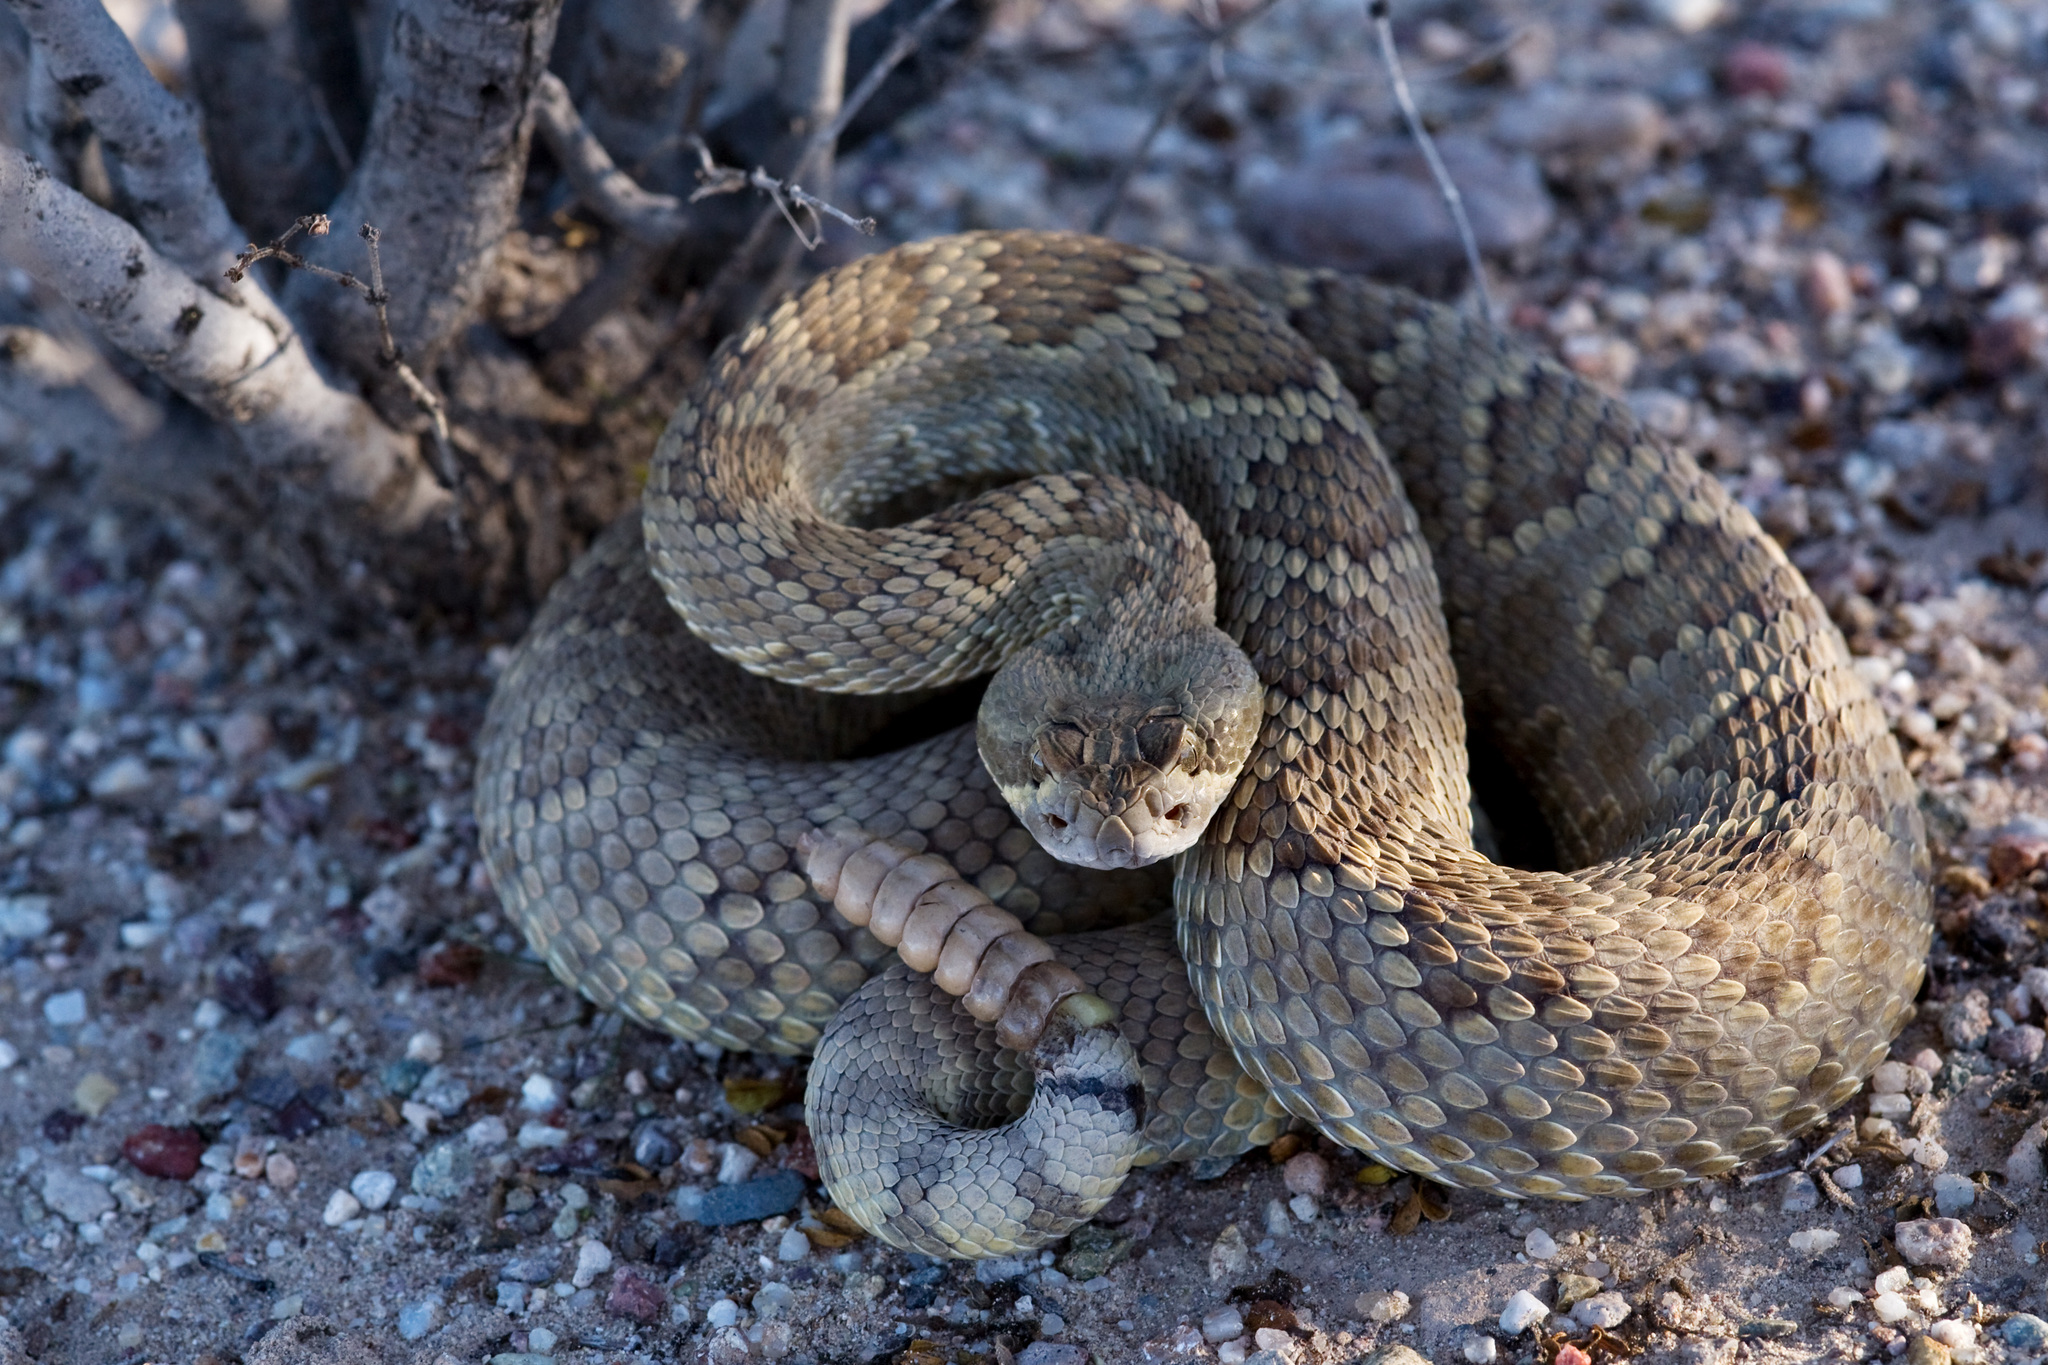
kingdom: Animalia
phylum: Chordata
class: Squamata
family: Viperidae
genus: Crotalus
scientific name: Crotalus scutulatus
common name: Scutulatus
